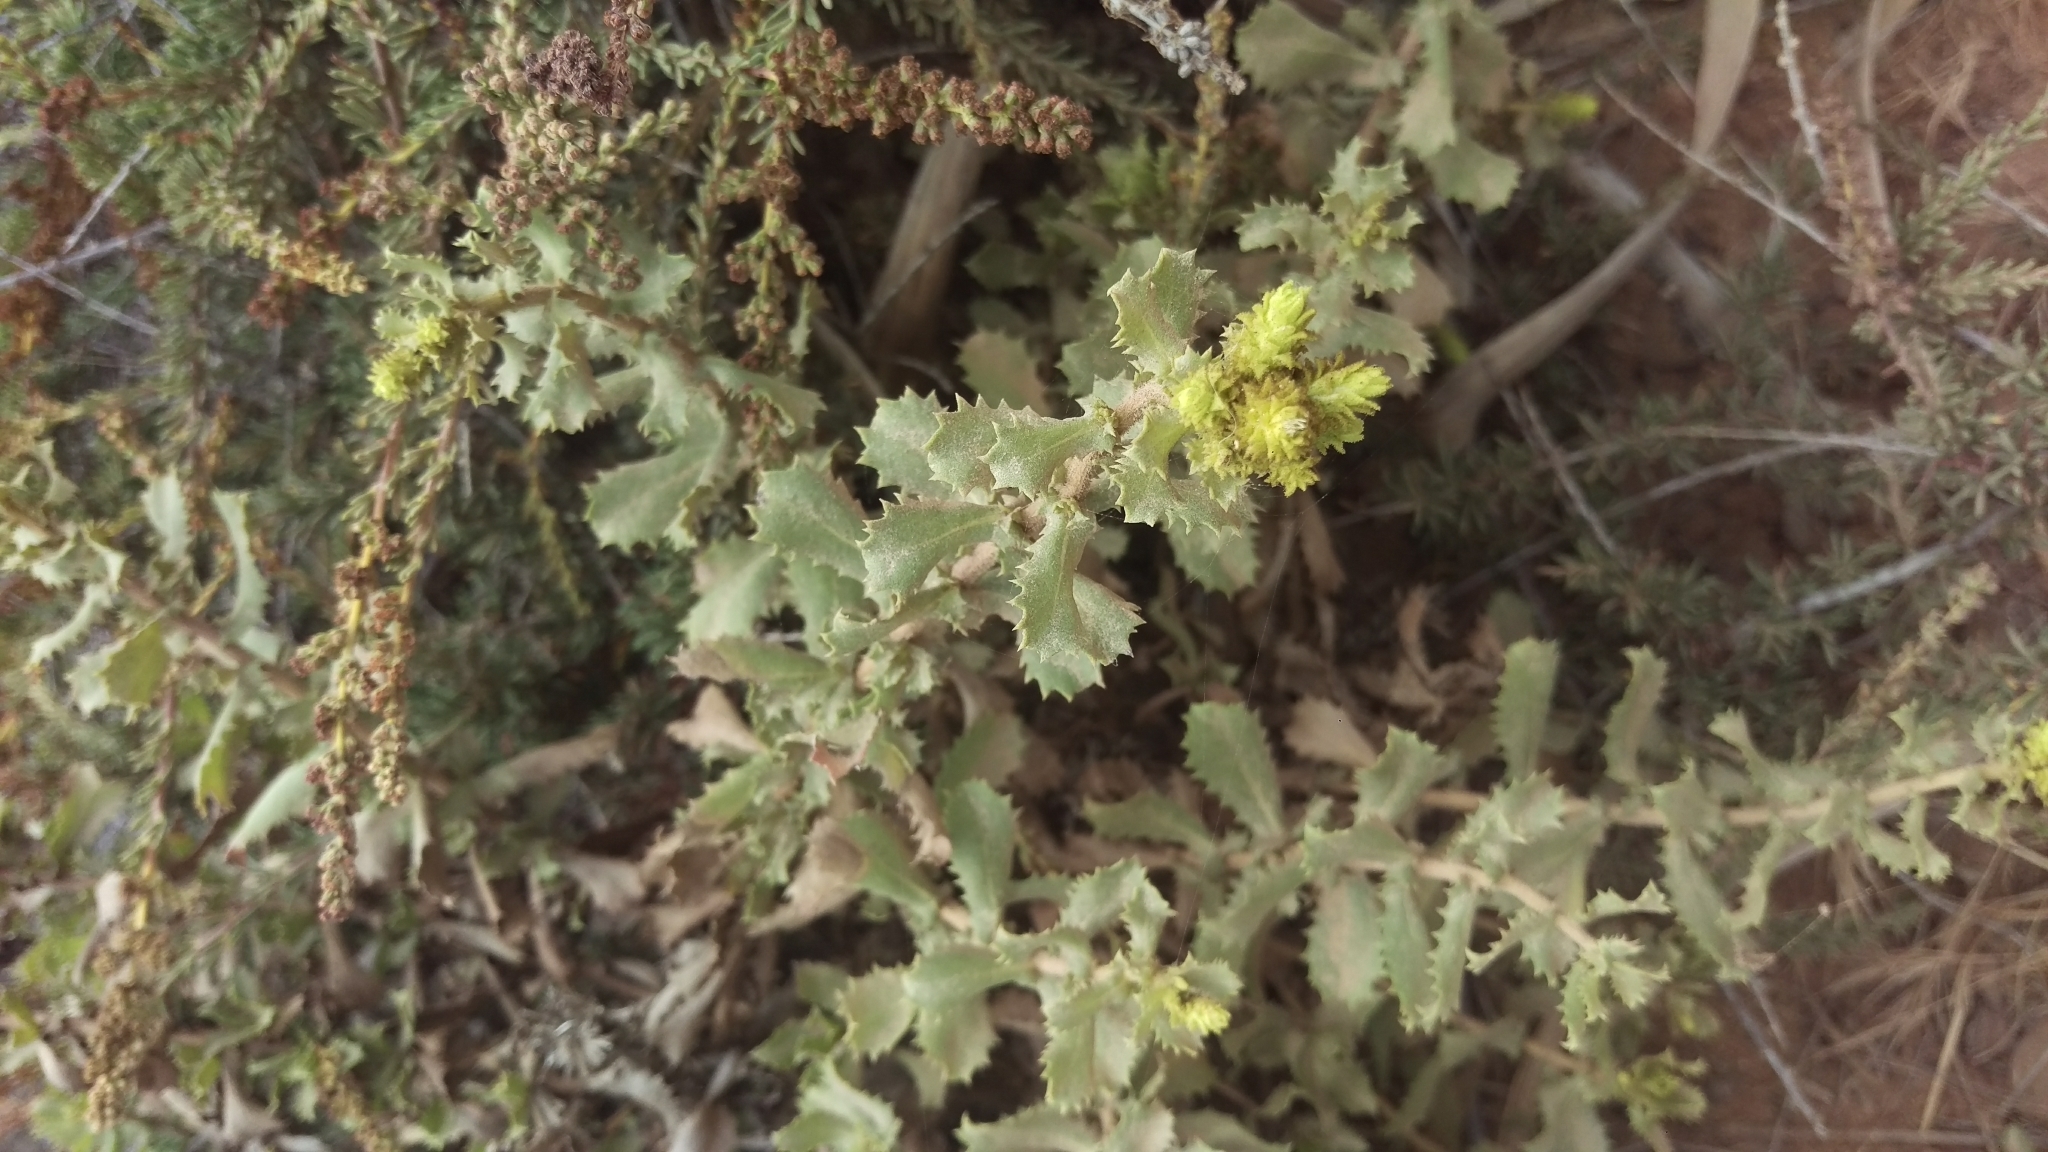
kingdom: Plantae
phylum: Tracheophyta
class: Magnoliopsida
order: Asterales
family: Asteraceae
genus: Hazardia
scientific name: Hazardia squarrosa
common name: Saw-tooth goldenbush
